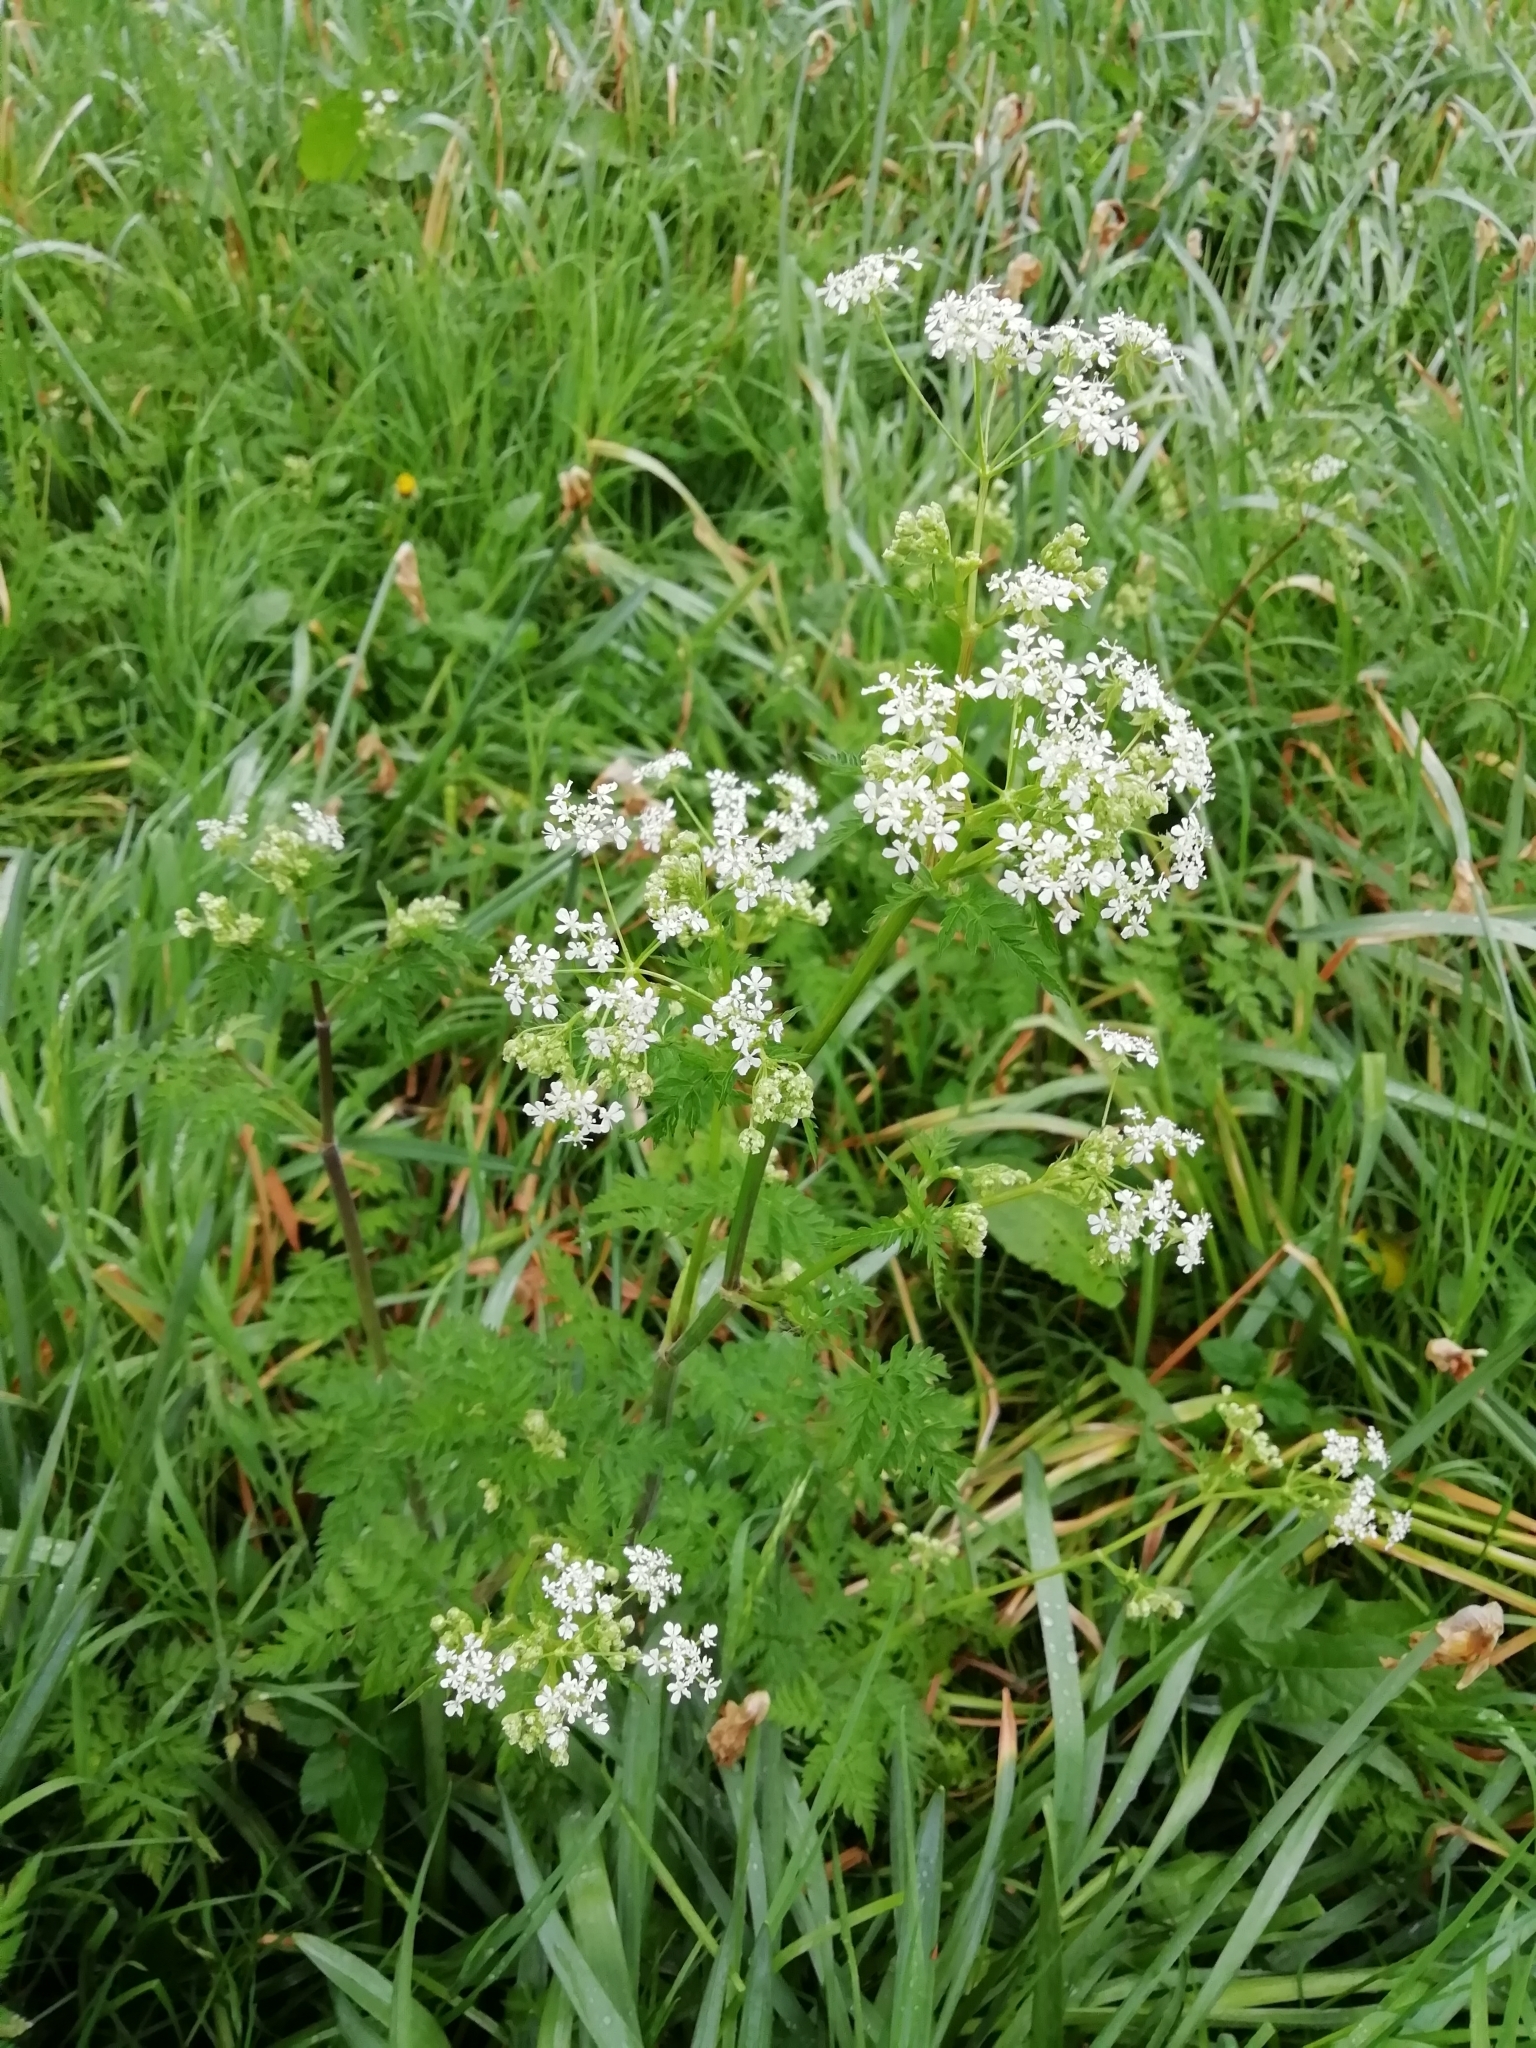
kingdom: Plantae
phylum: Tracheophyta
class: Magnoliopsida
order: Apiales
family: Apiaceae
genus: Anthriscus
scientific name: Anthriscus sylvestris
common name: Cow parsley
